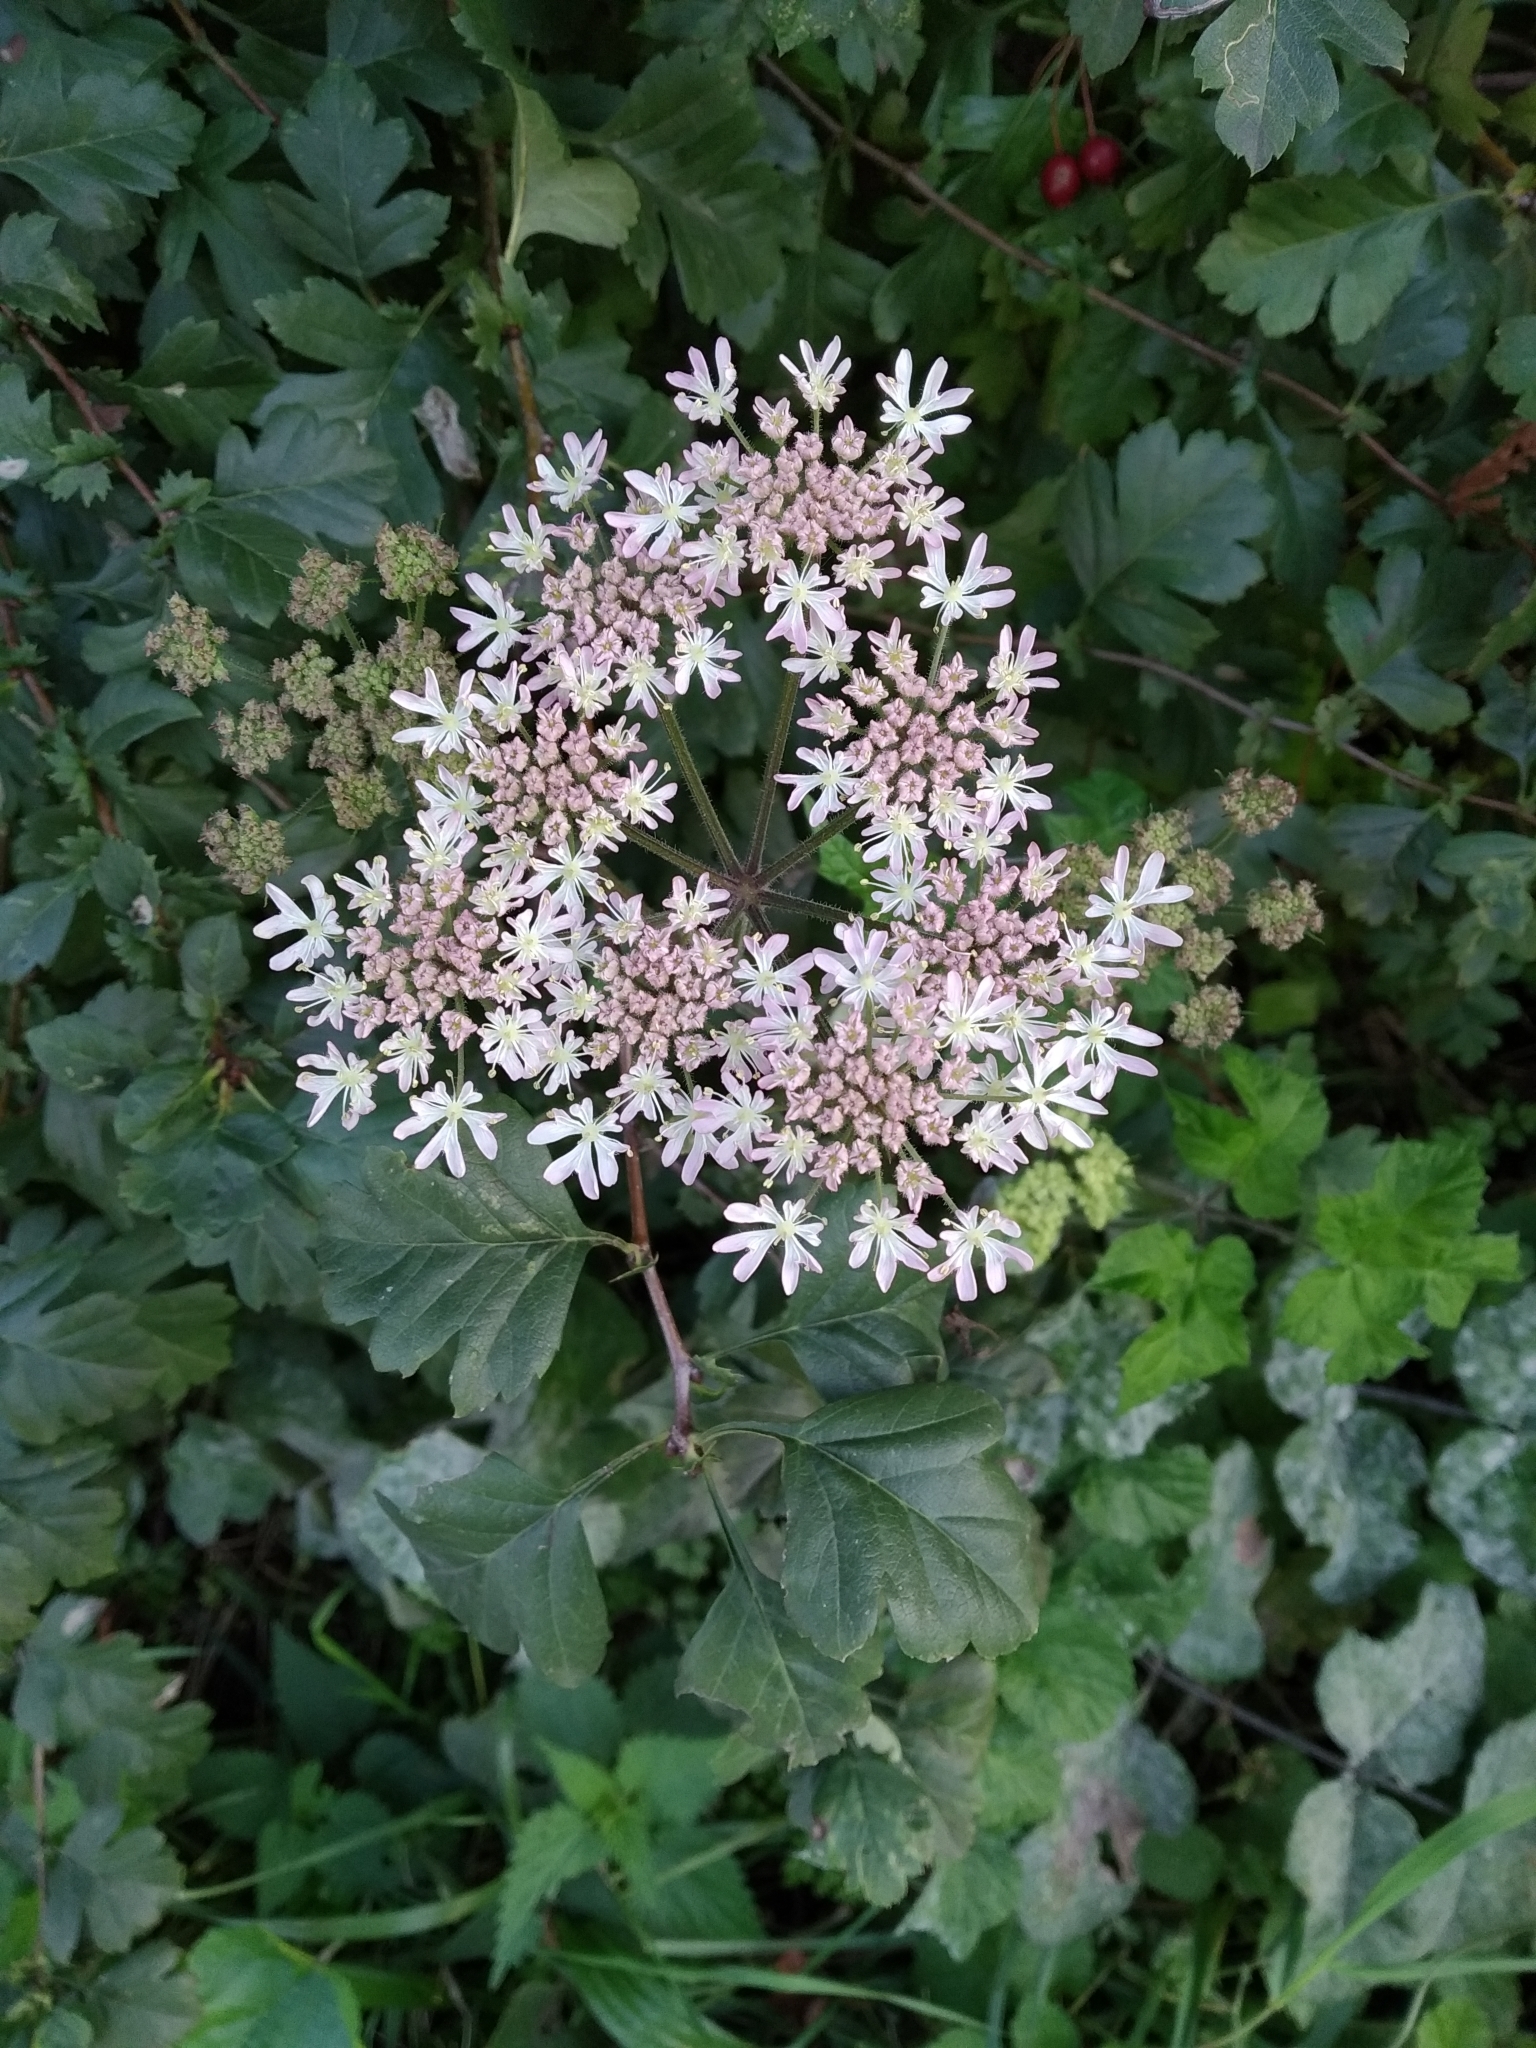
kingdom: Plantae
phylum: Tracheophyta
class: Magnoliopsida
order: Apiales
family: Apiaceae
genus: Heracleum
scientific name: Heracleum sphondylium
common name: Hogweed
